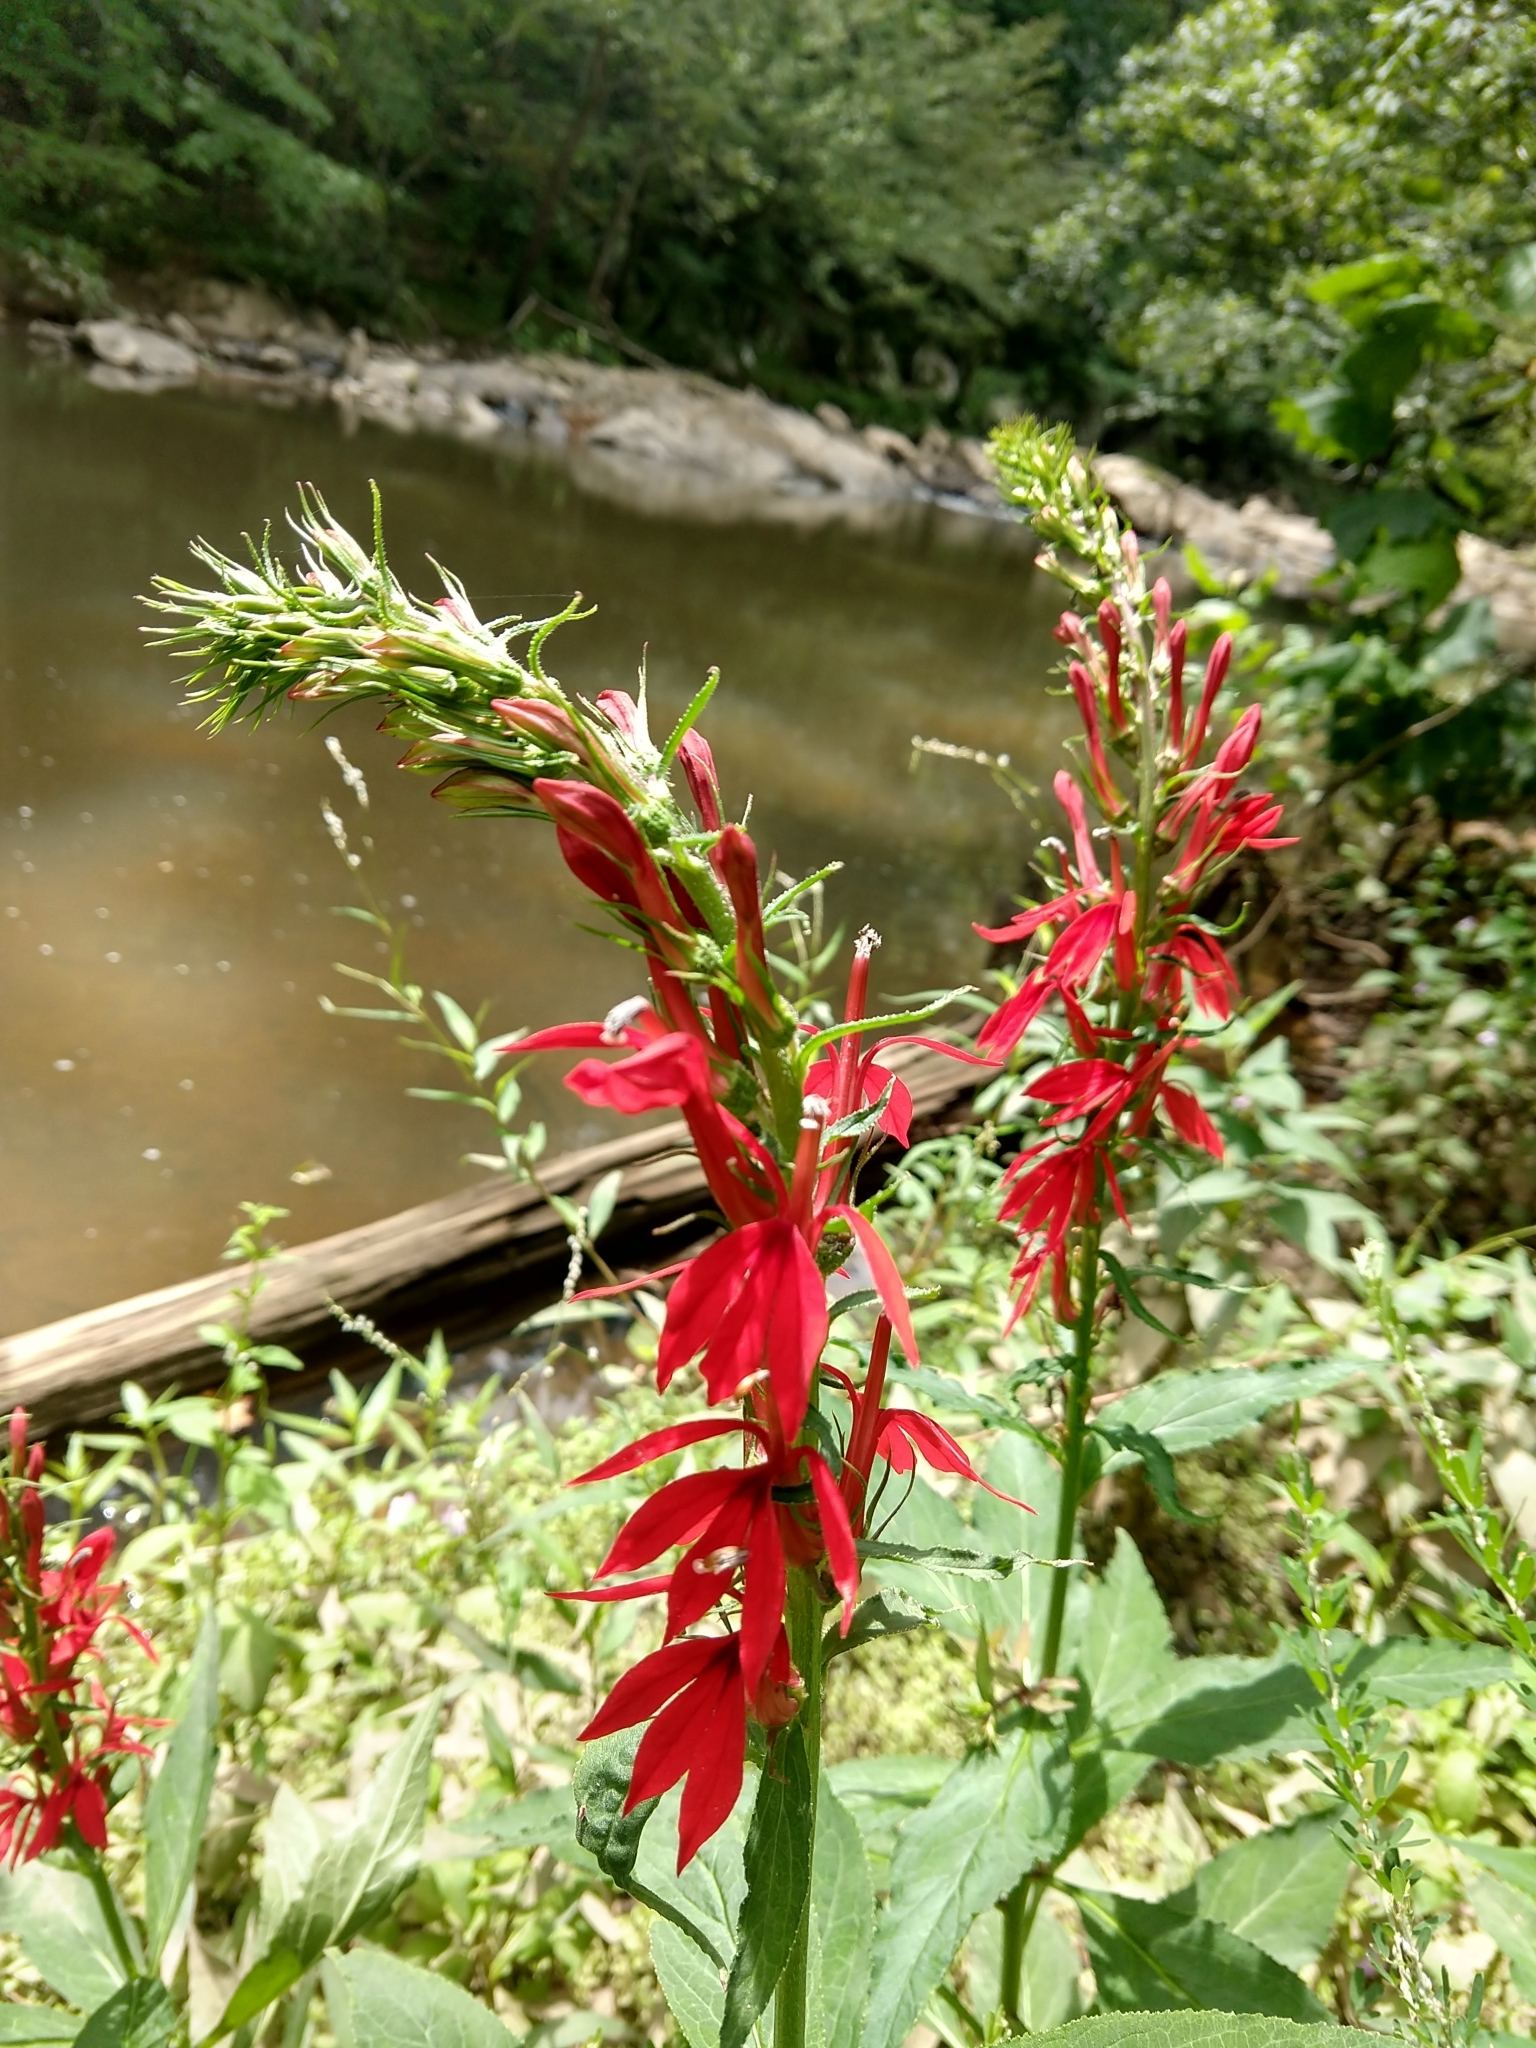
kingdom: Plantae
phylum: Tracheophyta
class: Magnoliopsida
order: Asterales
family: Campanulaceae
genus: Lobelia
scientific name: Lobelia cardinalis
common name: Cardinal flower
